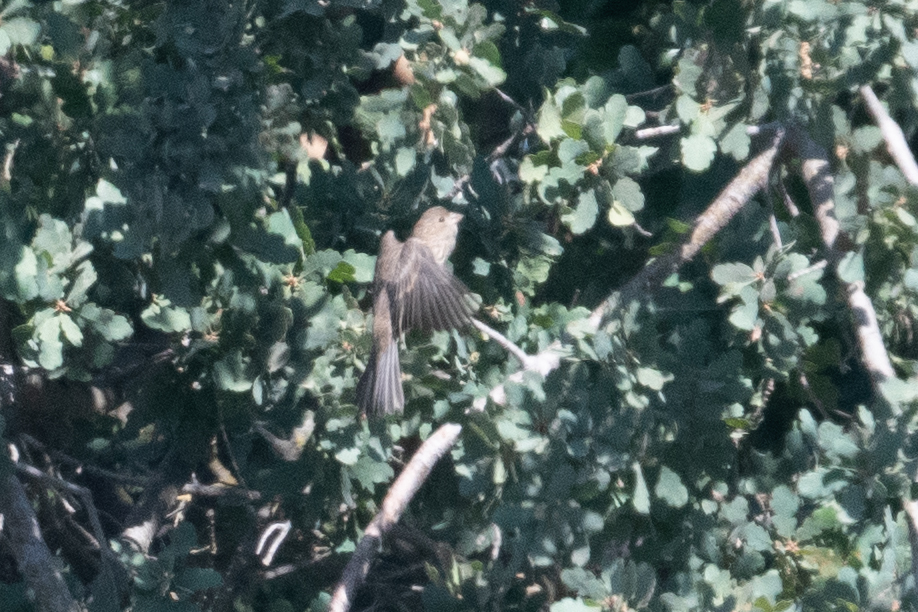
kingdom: Animalia
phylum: Chordata
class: Aves
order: Passeriformes
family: Fringillidae
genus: Haemorhous
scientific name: Haemorhous mexicanus
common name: House finch
